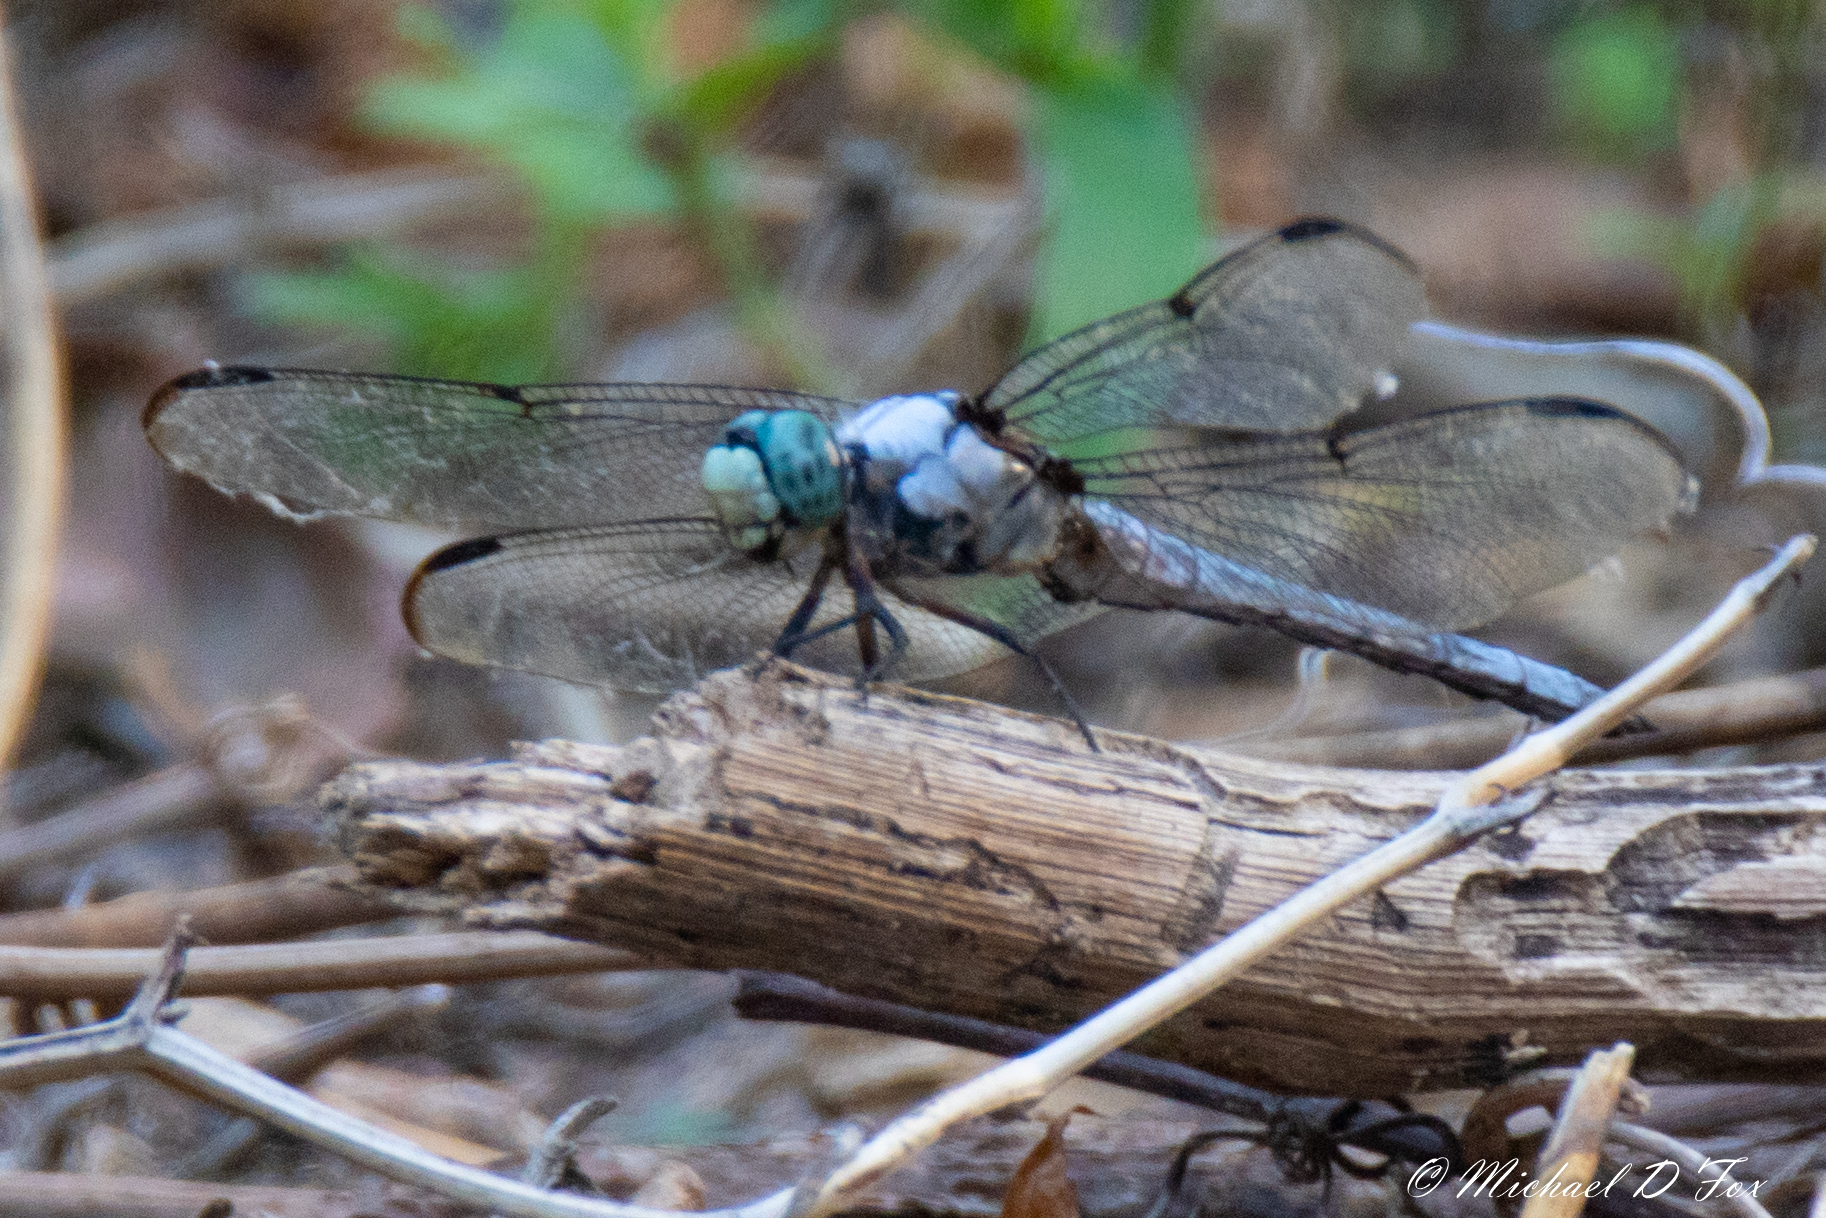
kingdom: Animalia
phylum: Arthropoda
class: Insecta
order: Odonata
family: Libellulidae
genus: Libellula
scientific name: Libellula vibrans
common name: Great blue skimmer
